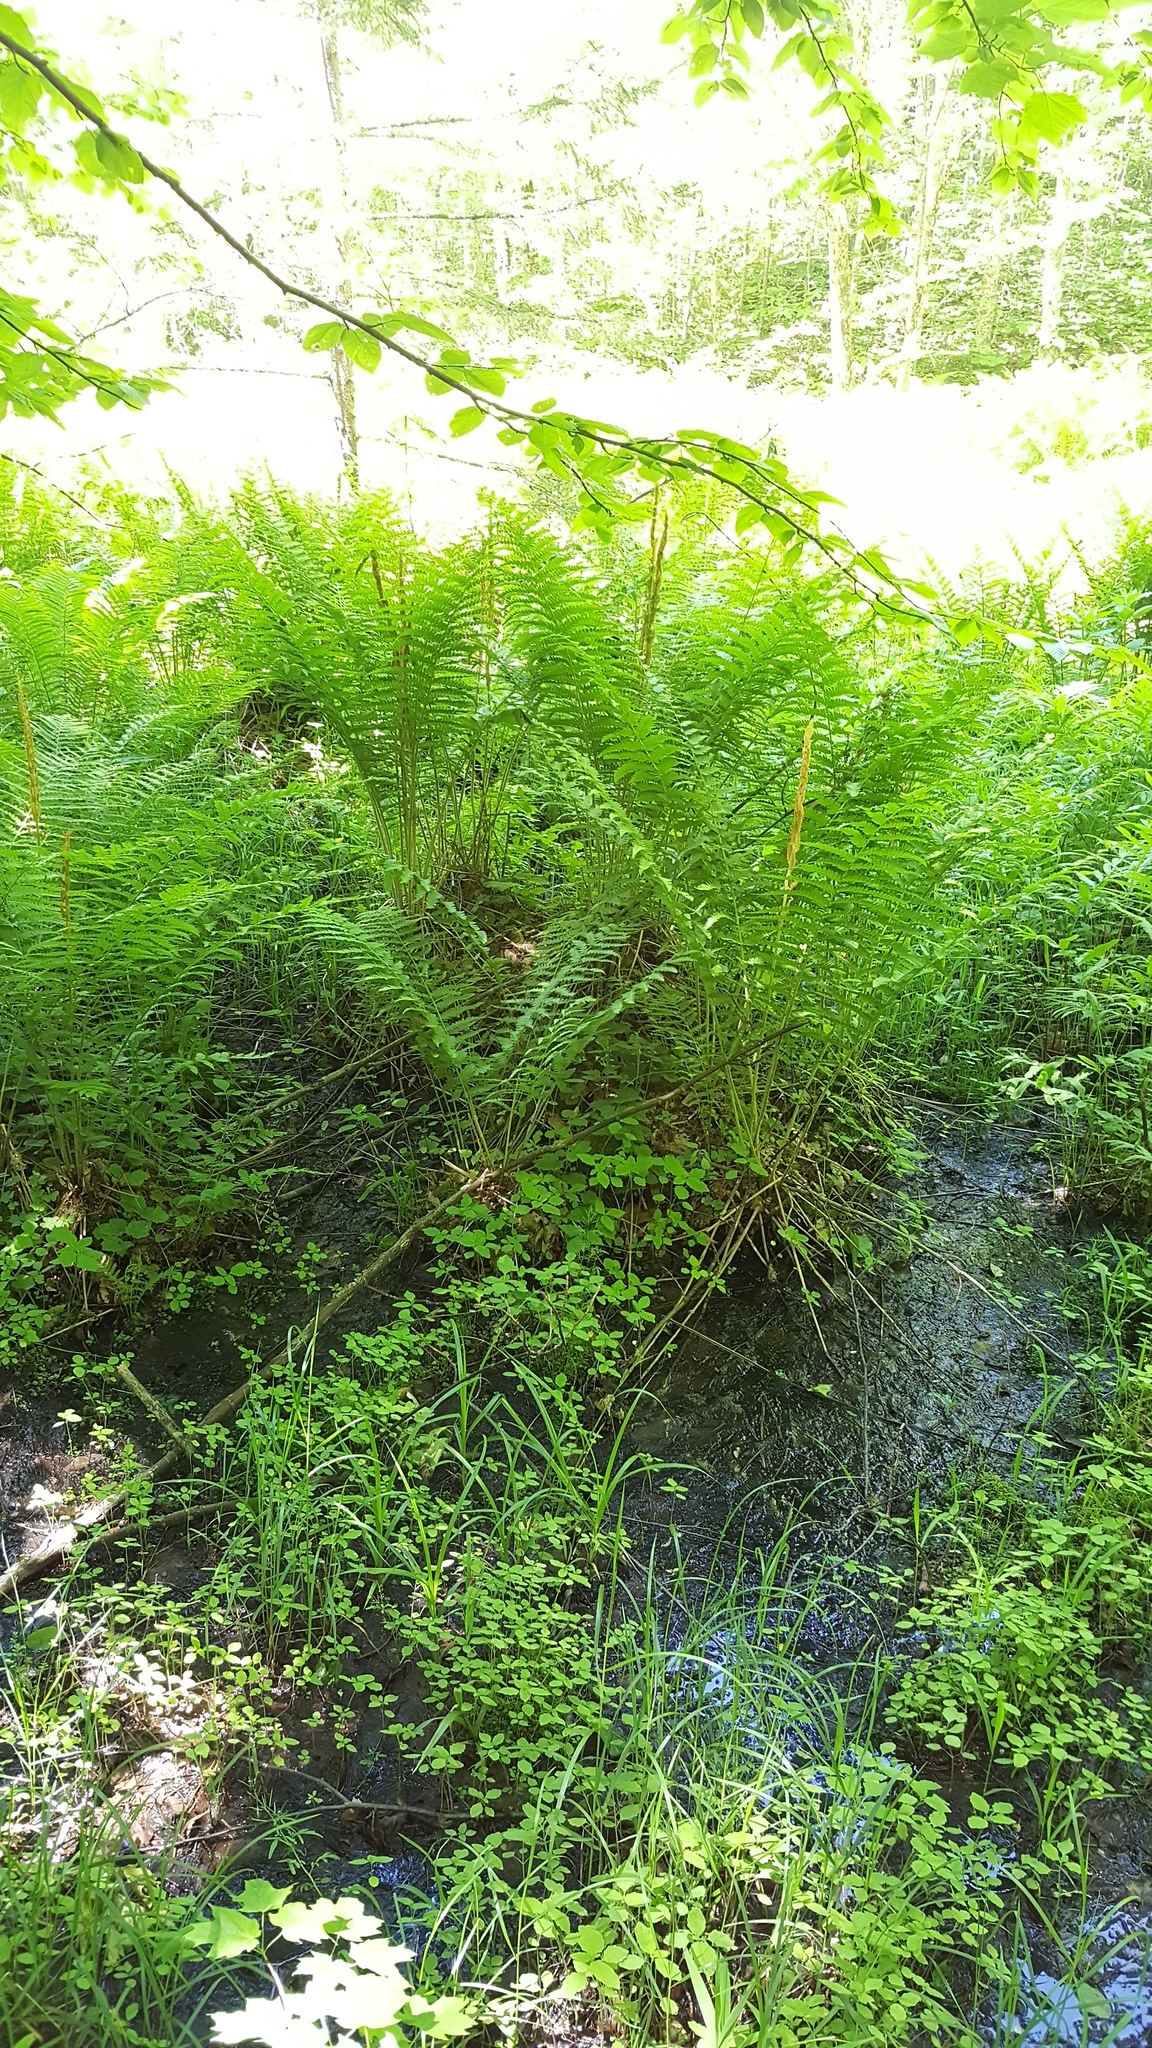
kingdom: Plantae
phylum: Tracheophyta
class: Polypodiopsida
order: Osmundales
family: Osmundaceae
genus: Osmundastrum
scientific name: Osmundastrum cinnamomeum
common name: Cinnamon fern
